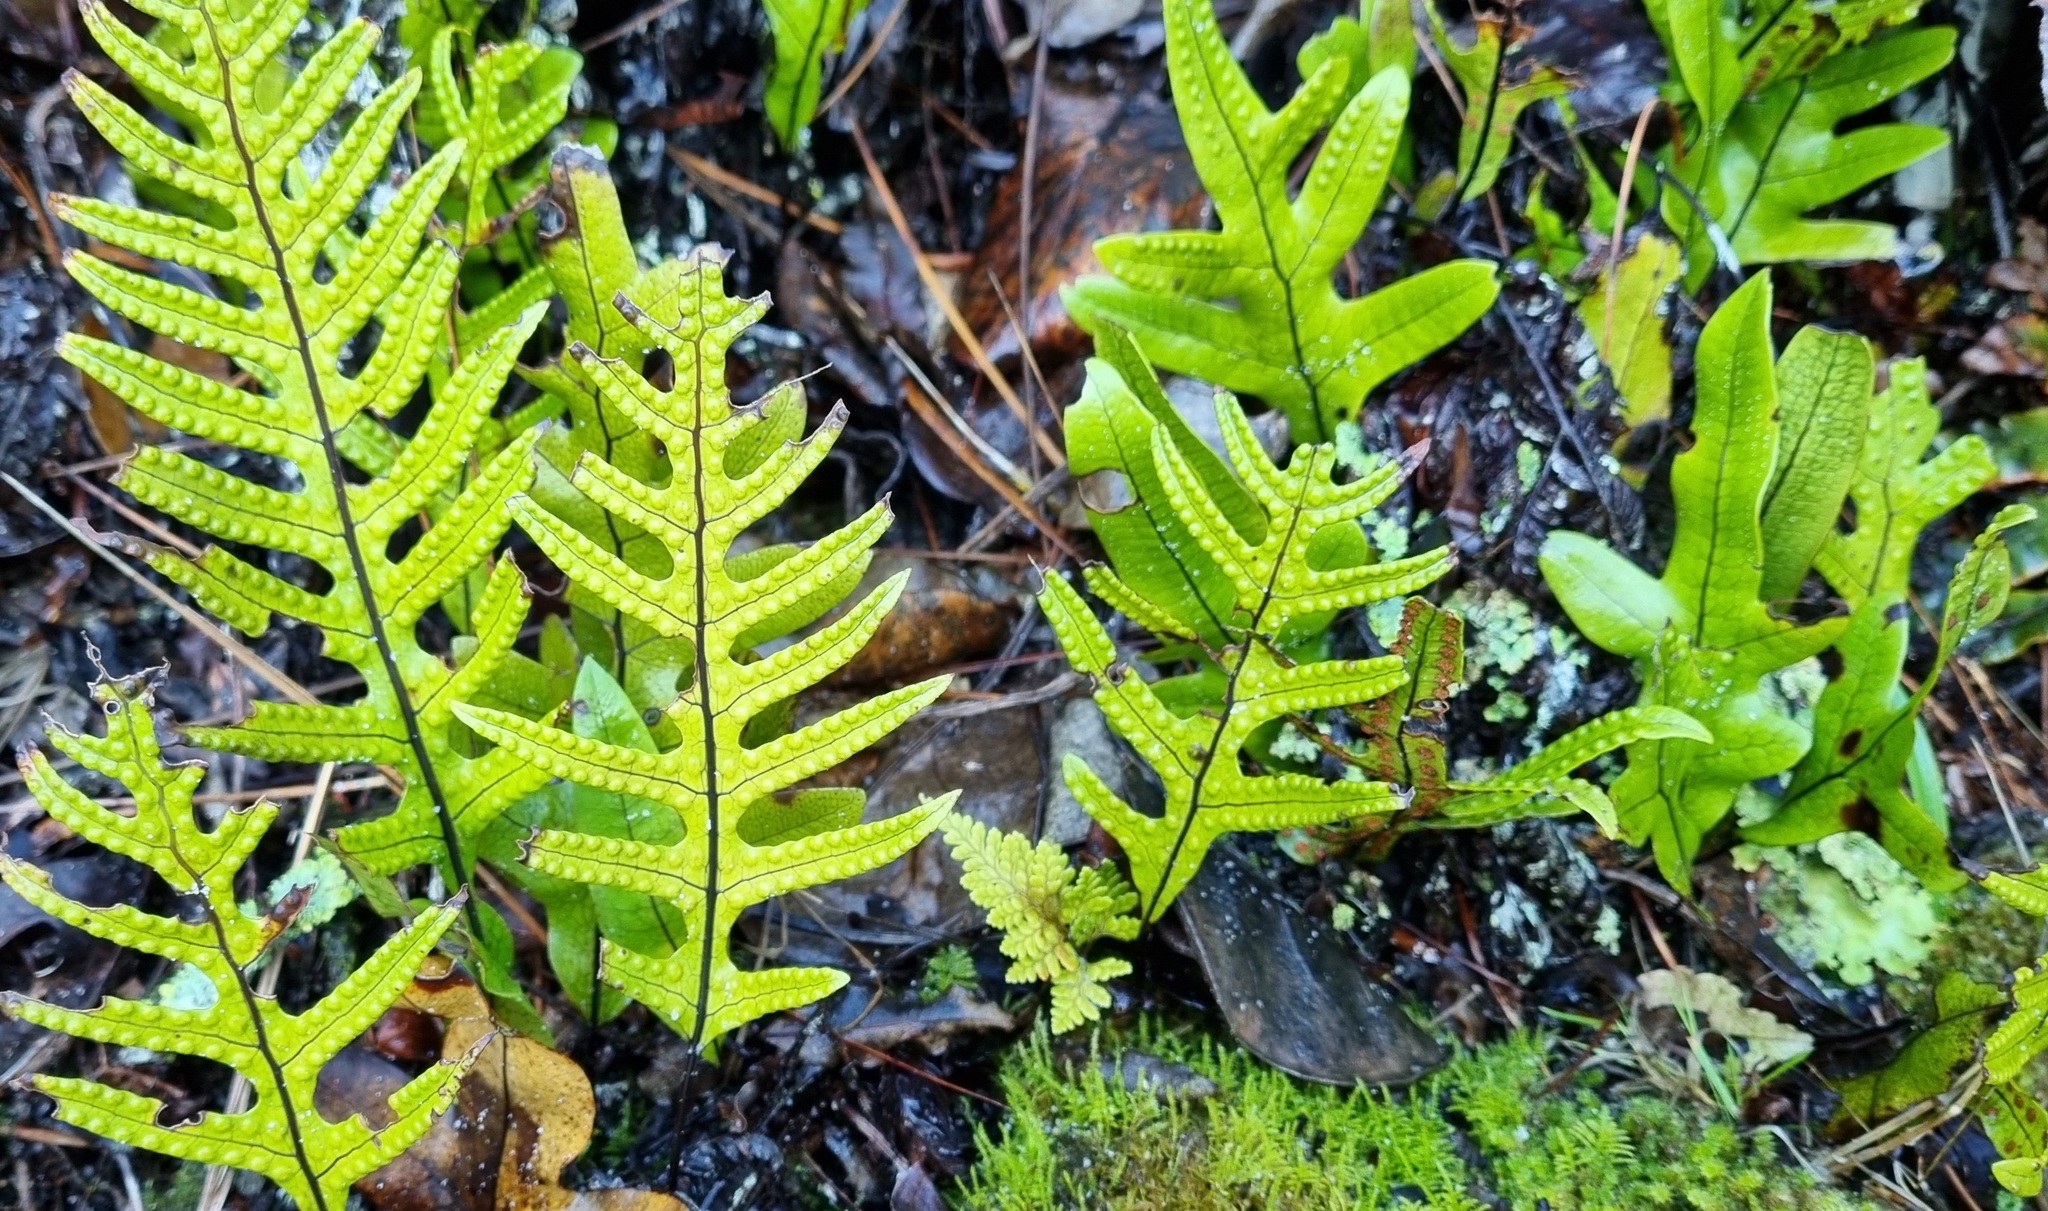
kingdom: Plantae
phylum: Tracheophyta
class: Polypodiopsida
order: Polypodiales
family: Polypodiaceae
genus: Lecanopteris
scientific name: Lecanopteris pustulata
